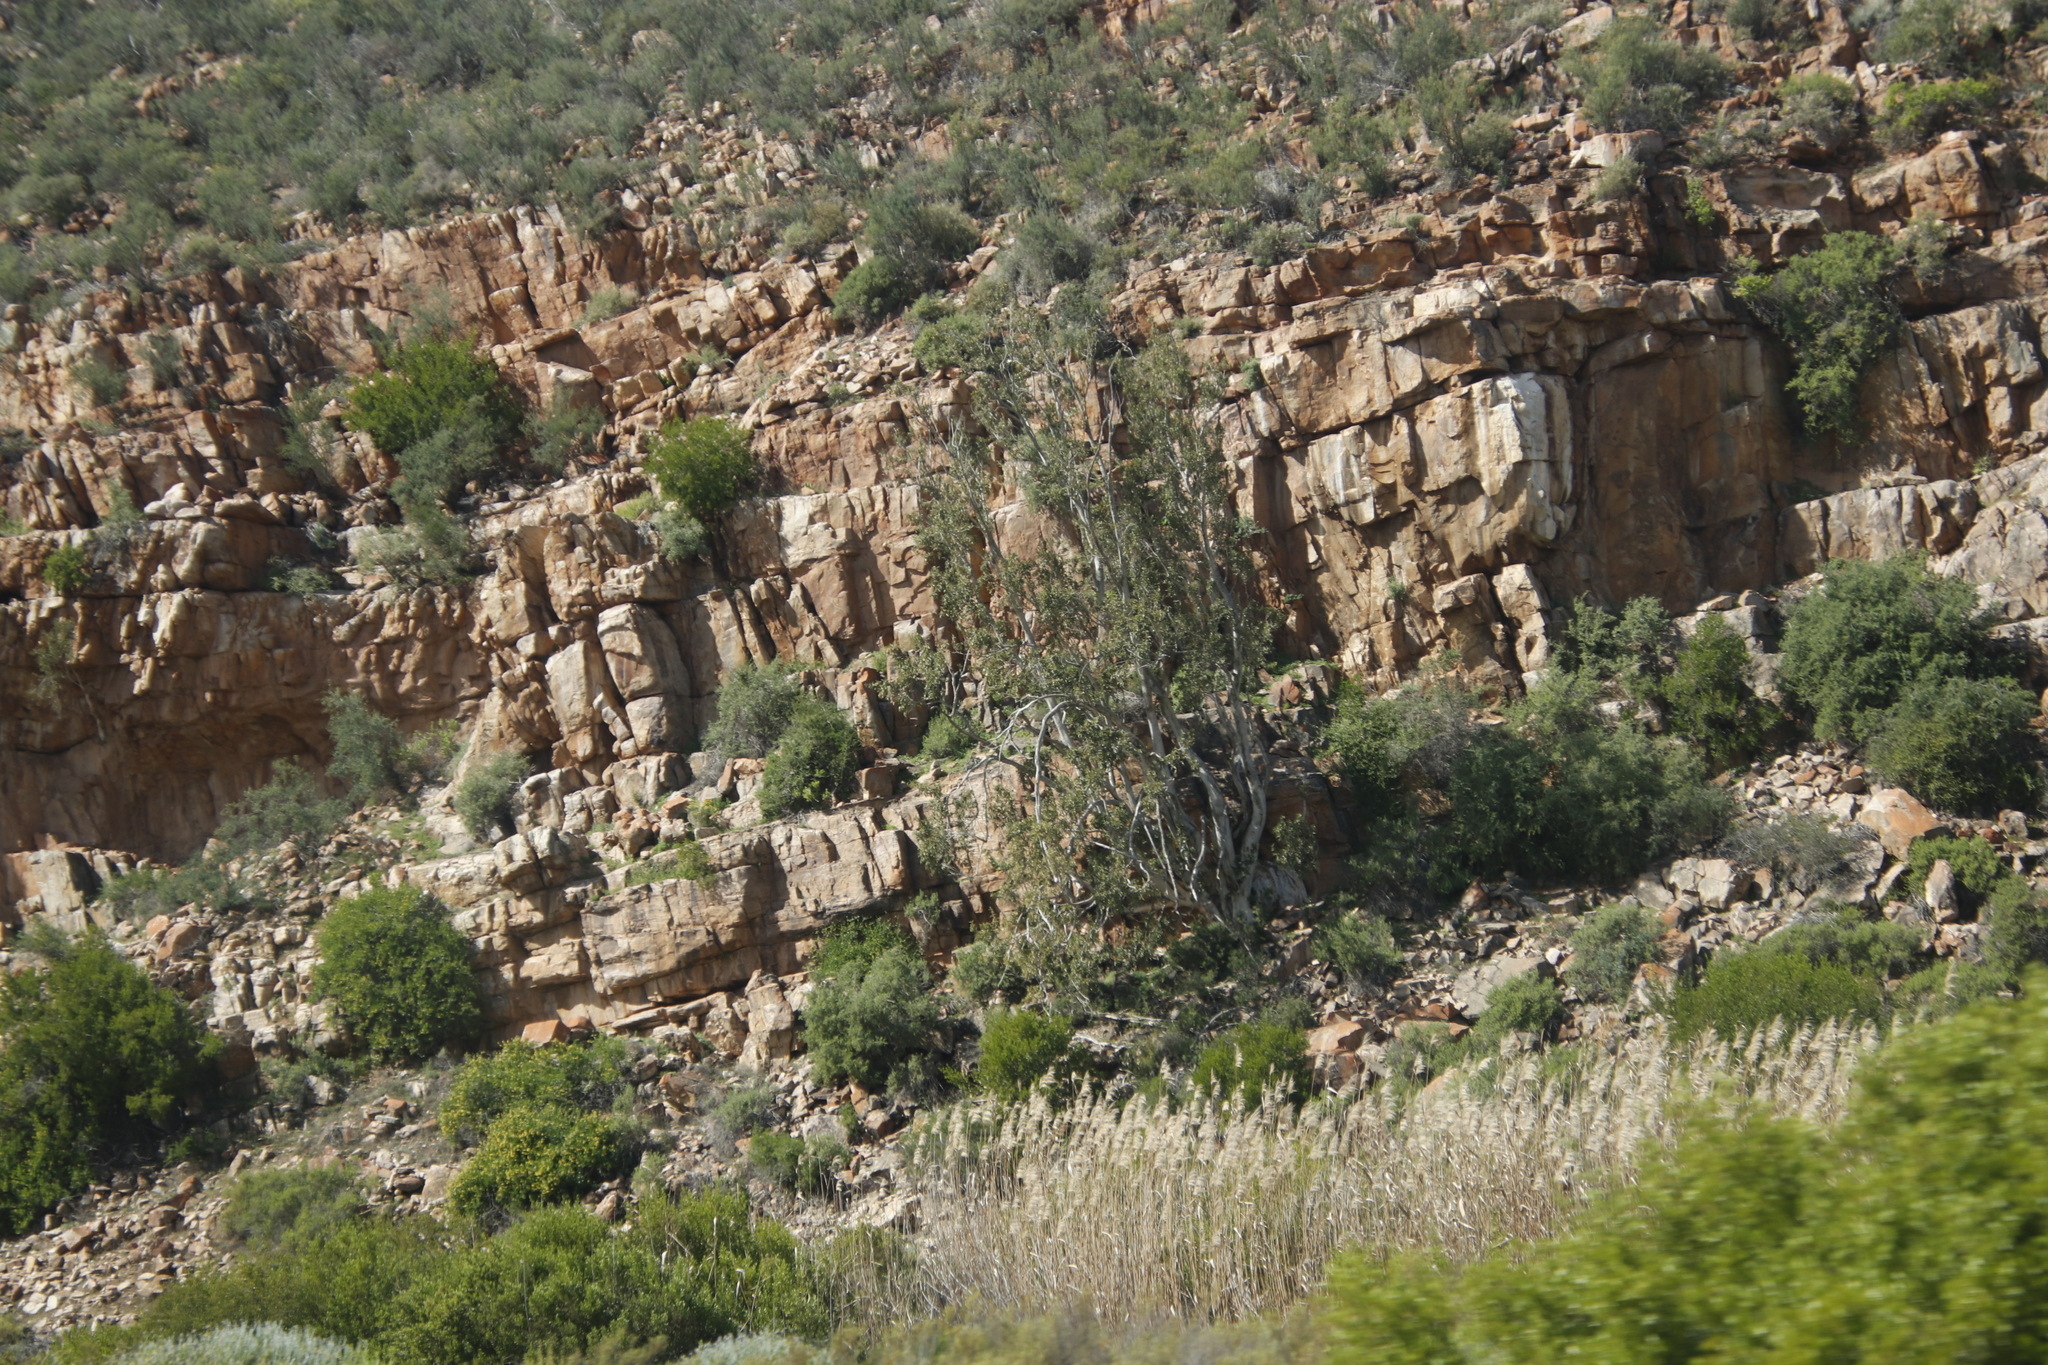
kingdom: Plantae
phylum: Tracheophyta
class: Magnoliopsida
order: Rosales
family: Moraceae
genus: Ficus
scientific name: Ficus cordata
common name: Namaqua rock fig
